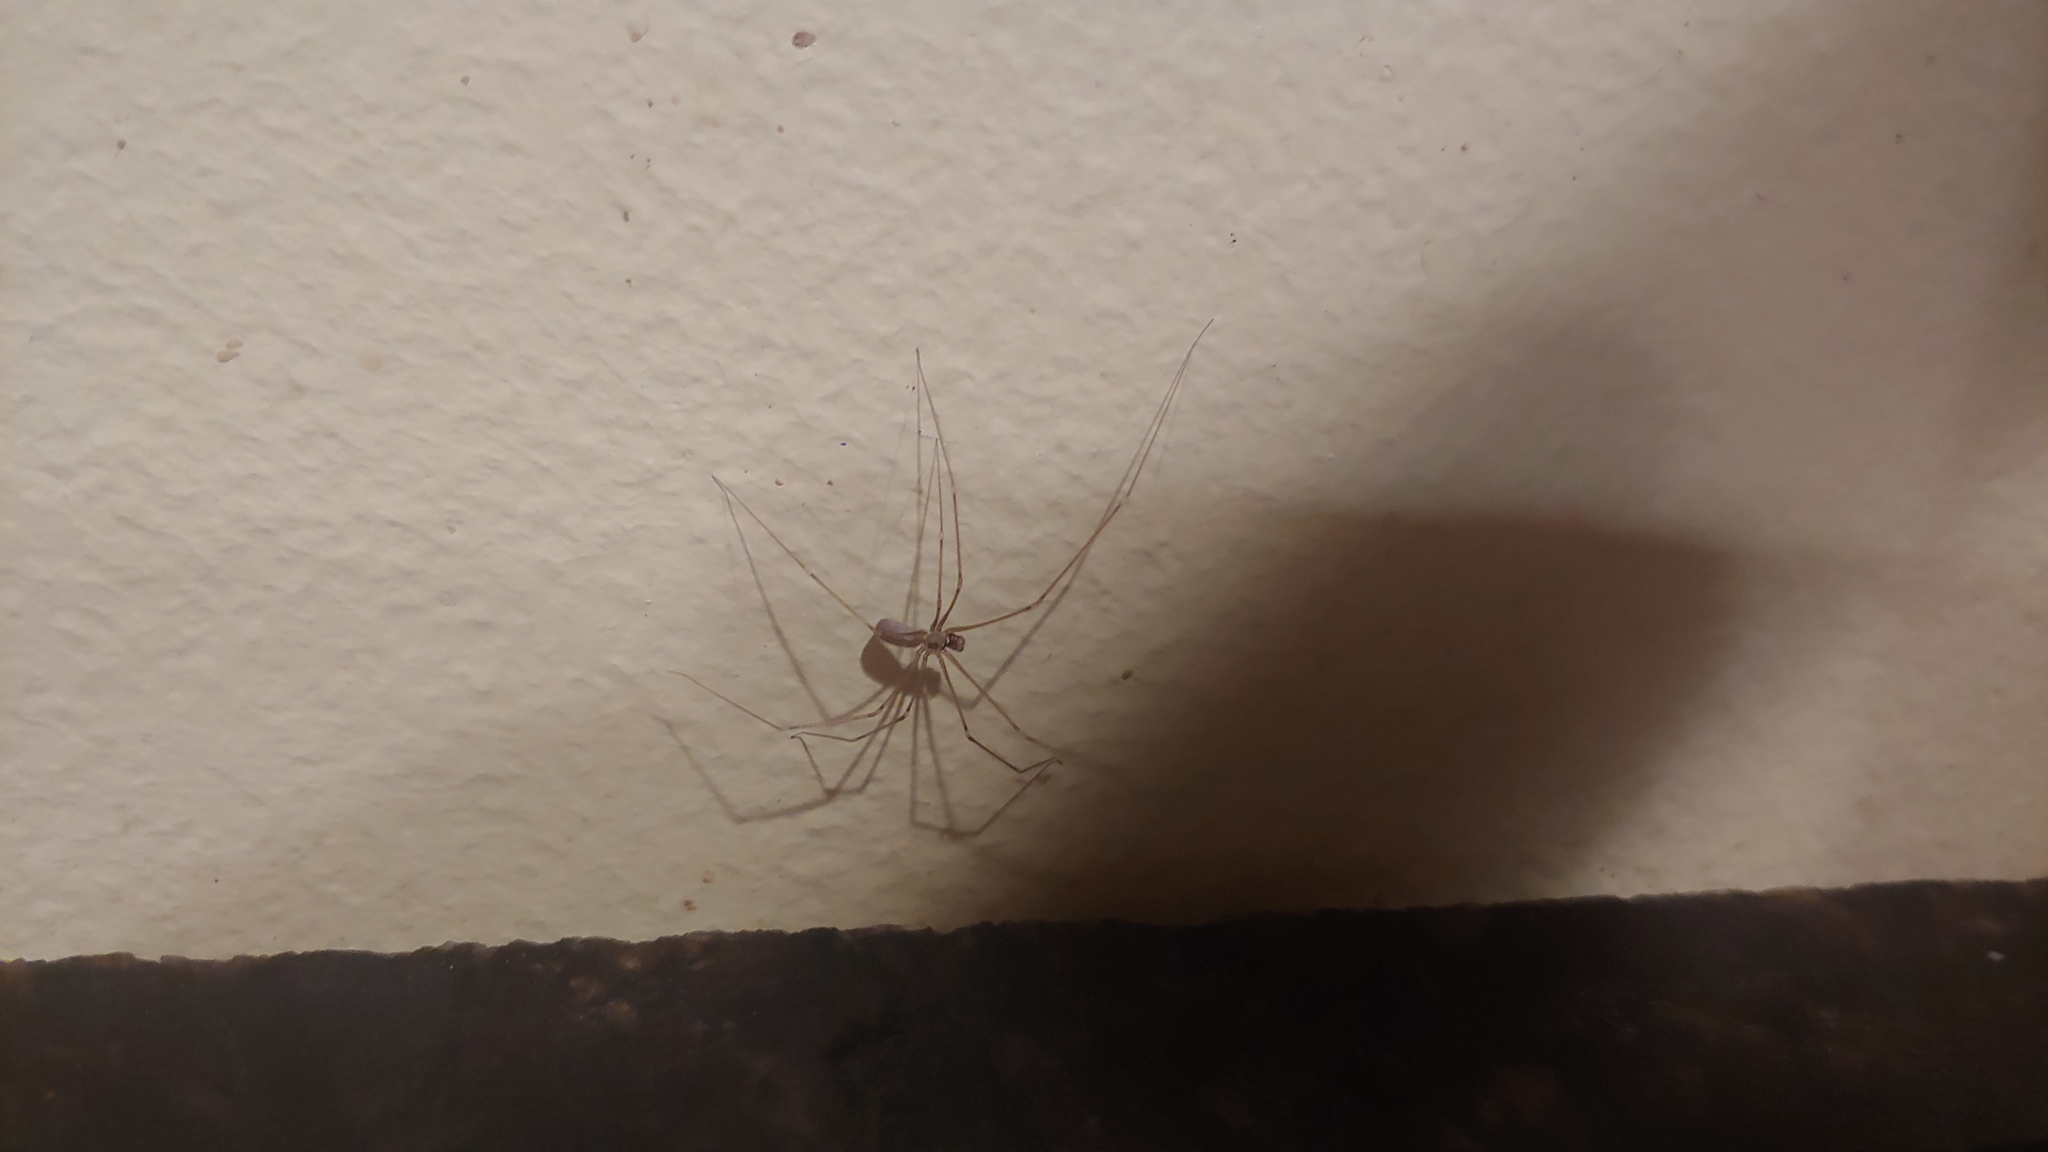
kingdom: Animalia
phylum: Arthropoda
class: Arachnida
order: Araneae
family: Pholcidae
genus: Pholcus
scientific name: Pholcus phalangioides
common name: Longbodied cellar spider
